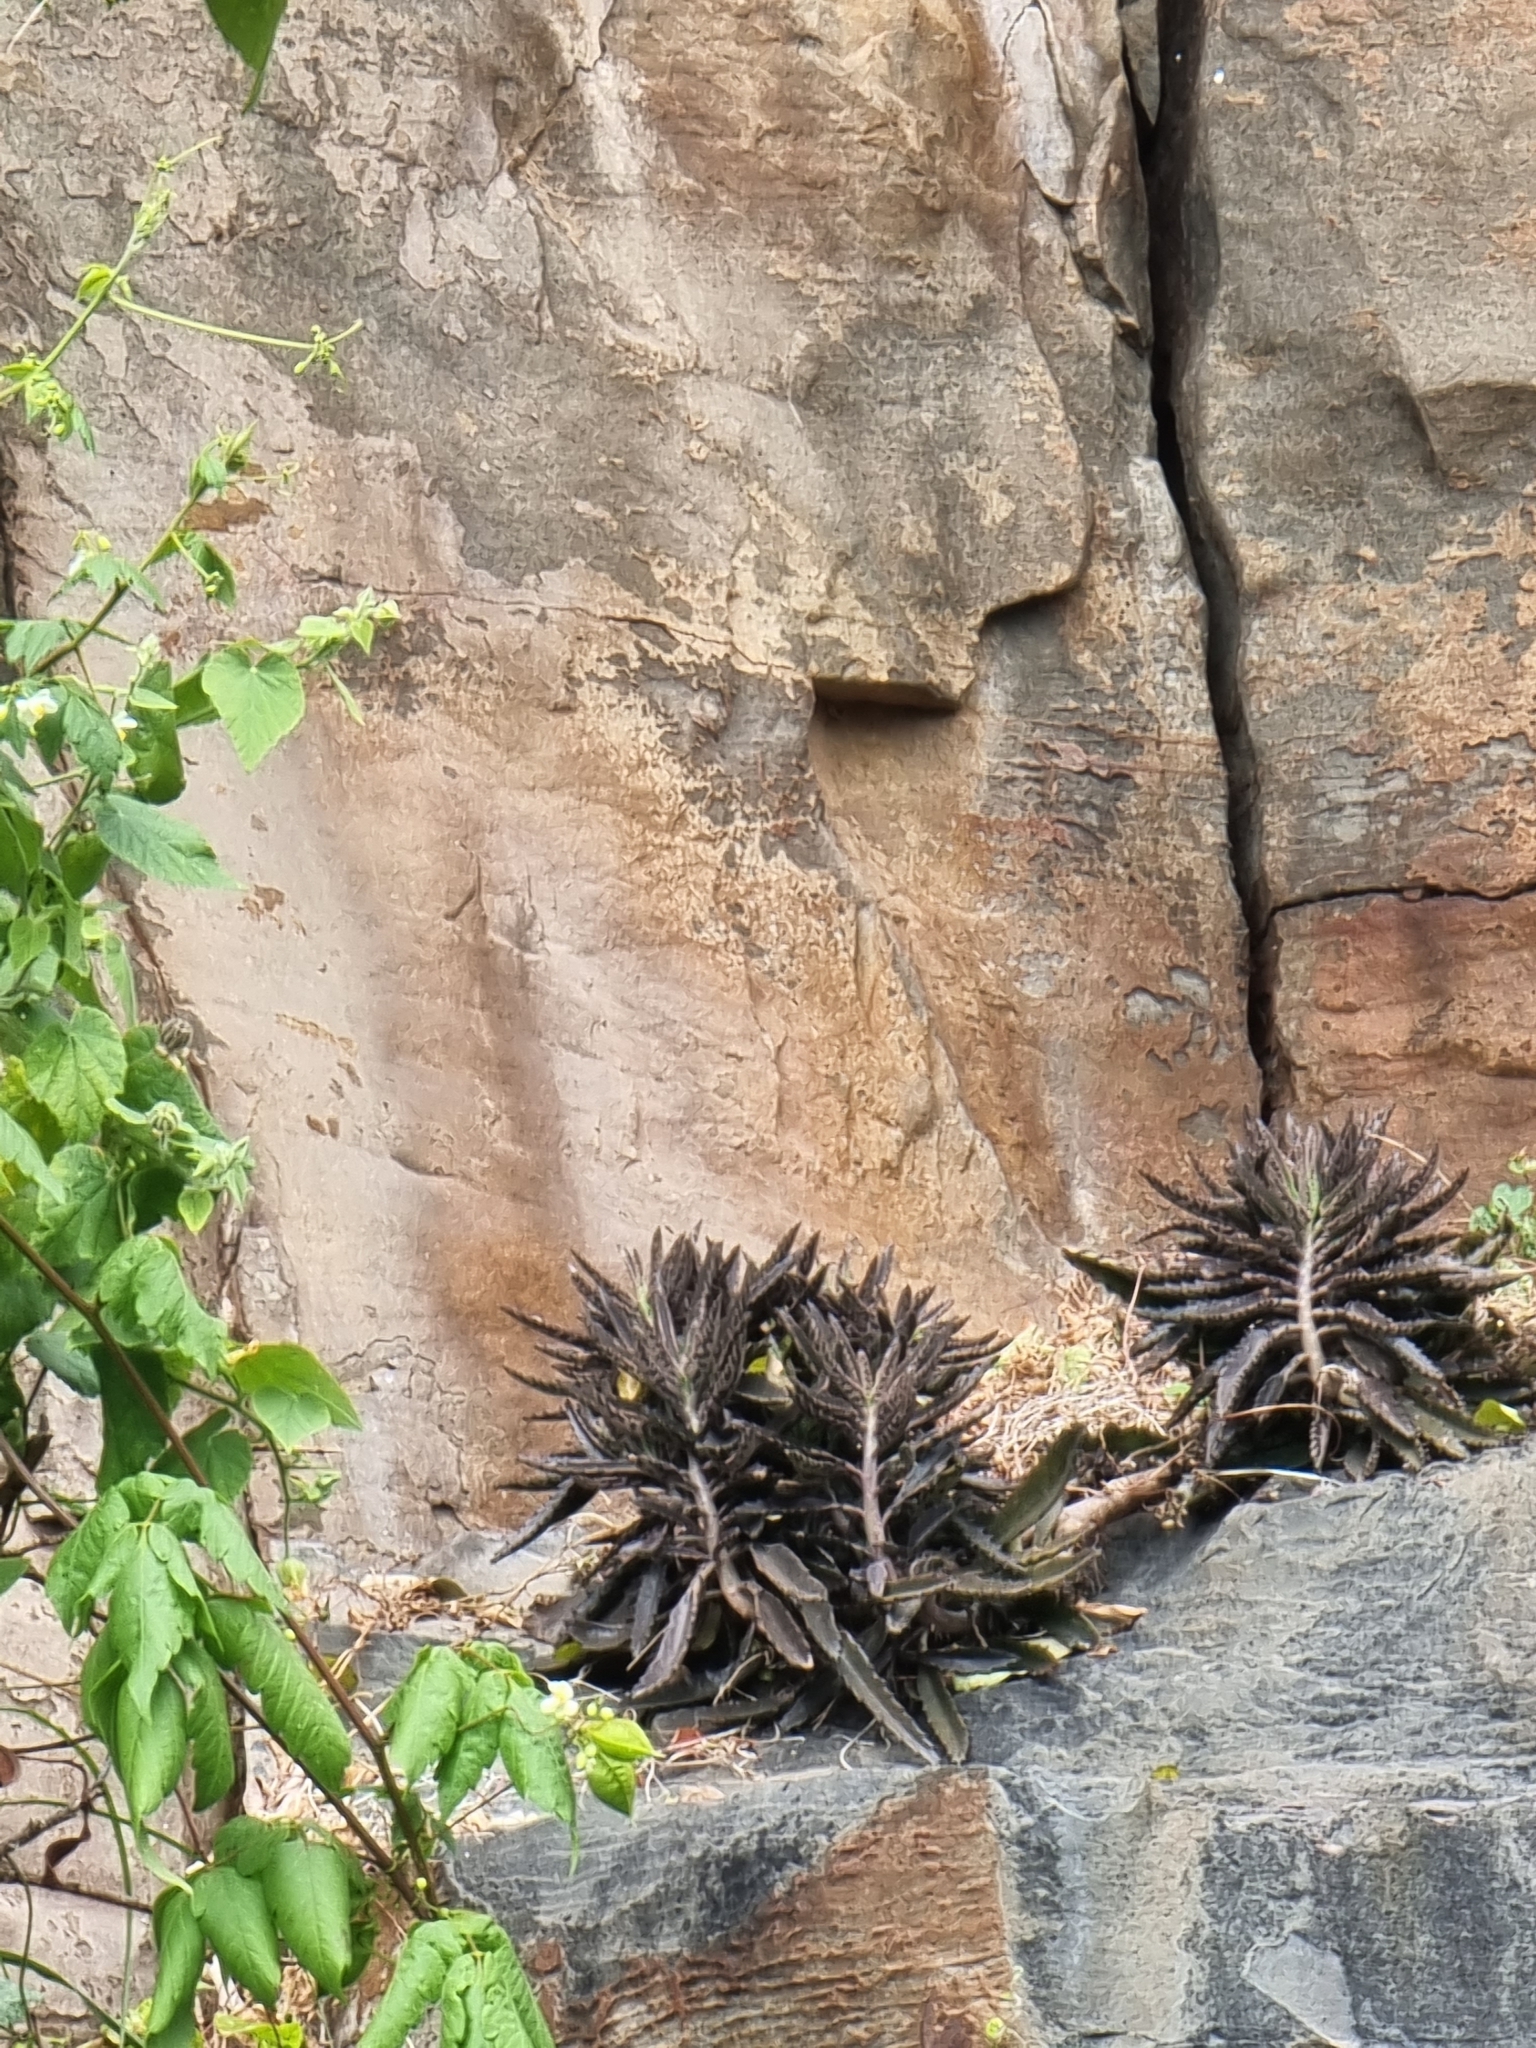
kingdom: Plantae
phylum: Tracheophyta
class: Magnoliopsida
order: Saxifragales
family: Crassulaceae
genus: Kalanchoe
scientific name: Kalanchoe houghtonii
